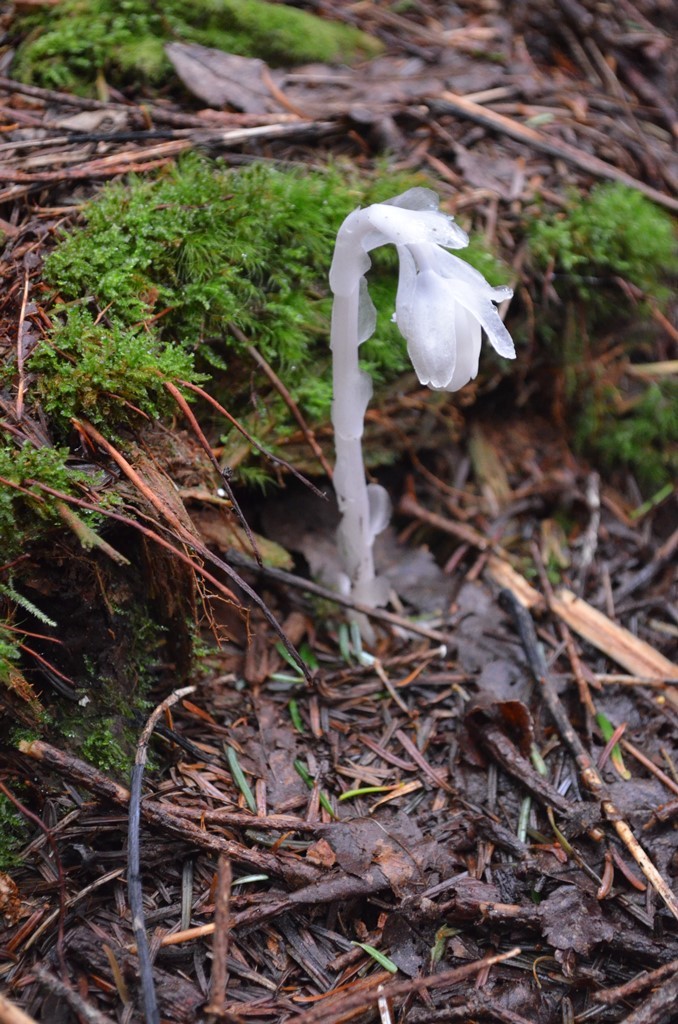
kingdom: Plantae
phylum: Tracheophyta
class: Magnoliopsida
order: Ericales
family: Ericaceae
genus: Monotropa
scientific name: Monotropa uniflora
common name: Convulsion root
